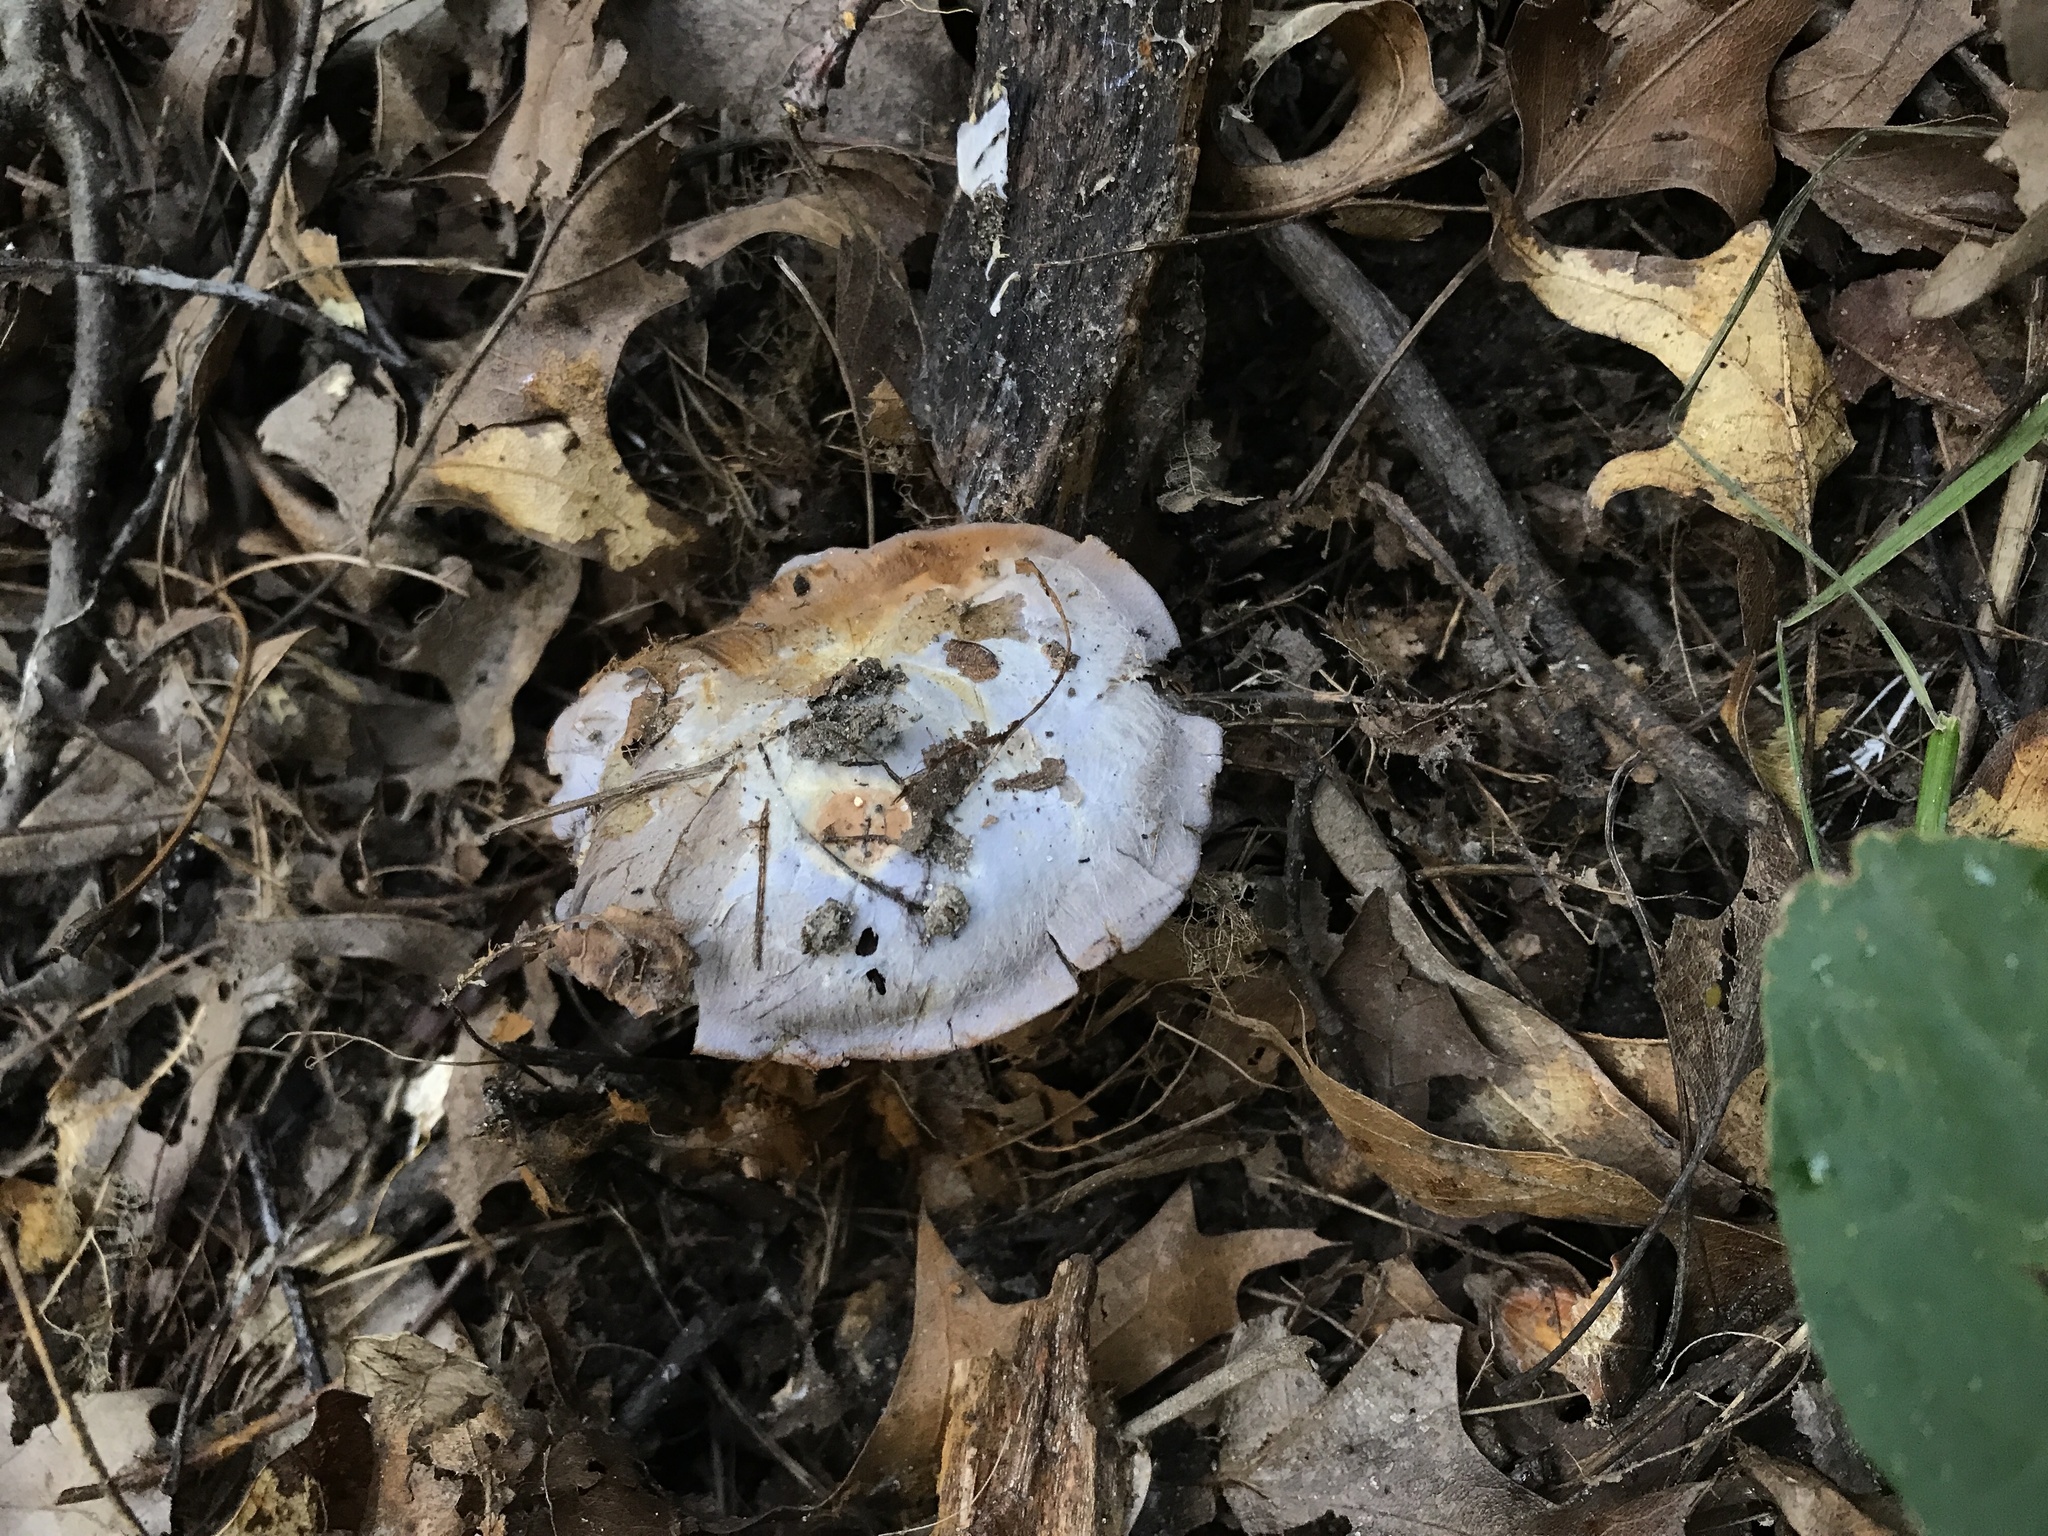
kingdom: Fungi
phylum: Basidiomycota
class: Agaricomycetes
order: Agaricales
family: Cortinariaceae
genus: Phlegmacium
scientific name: Phlegmacium luhmannii
